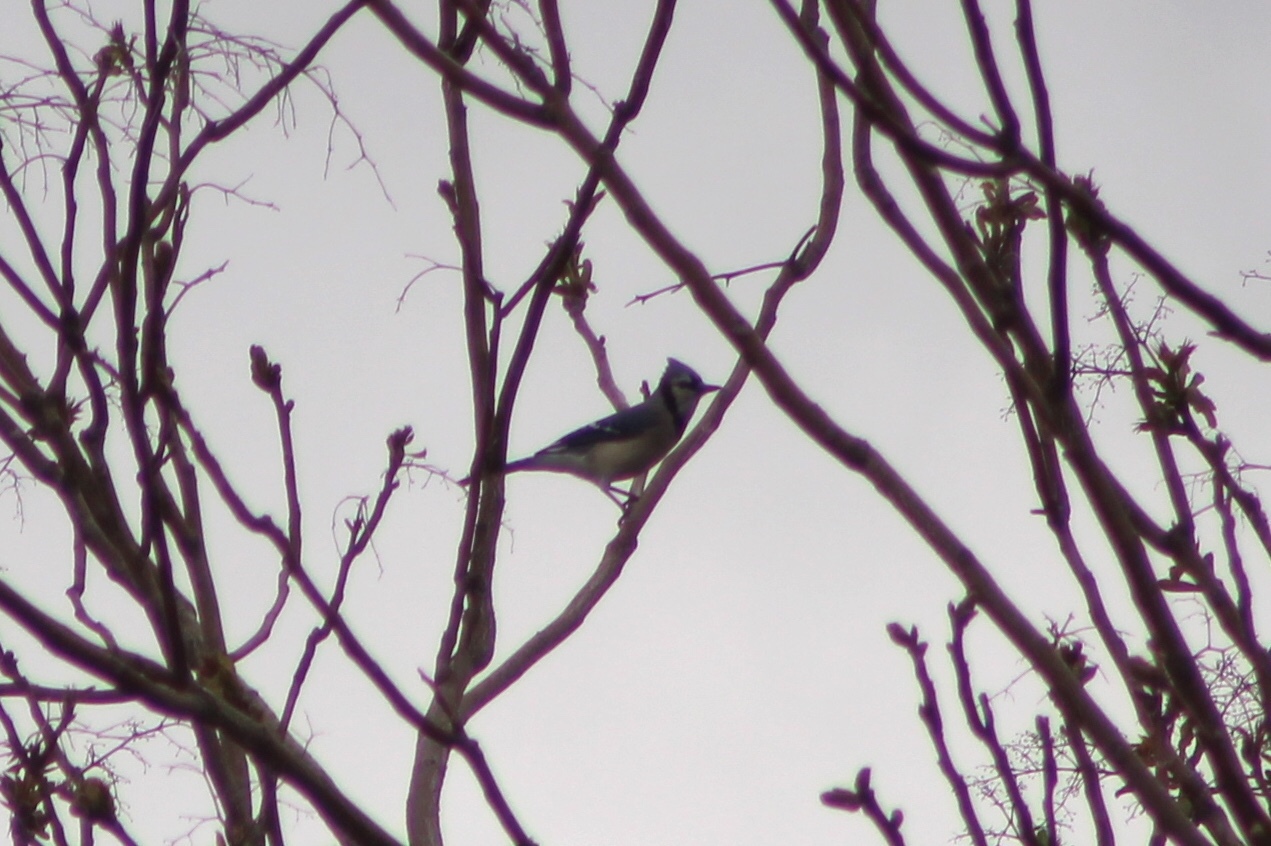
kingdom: Animalia
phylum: Chordata
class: Aves
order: Passeriformes
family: Corvidae
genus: Cyanocitta
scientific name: Cyanocitta cristata
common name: Blue jay
